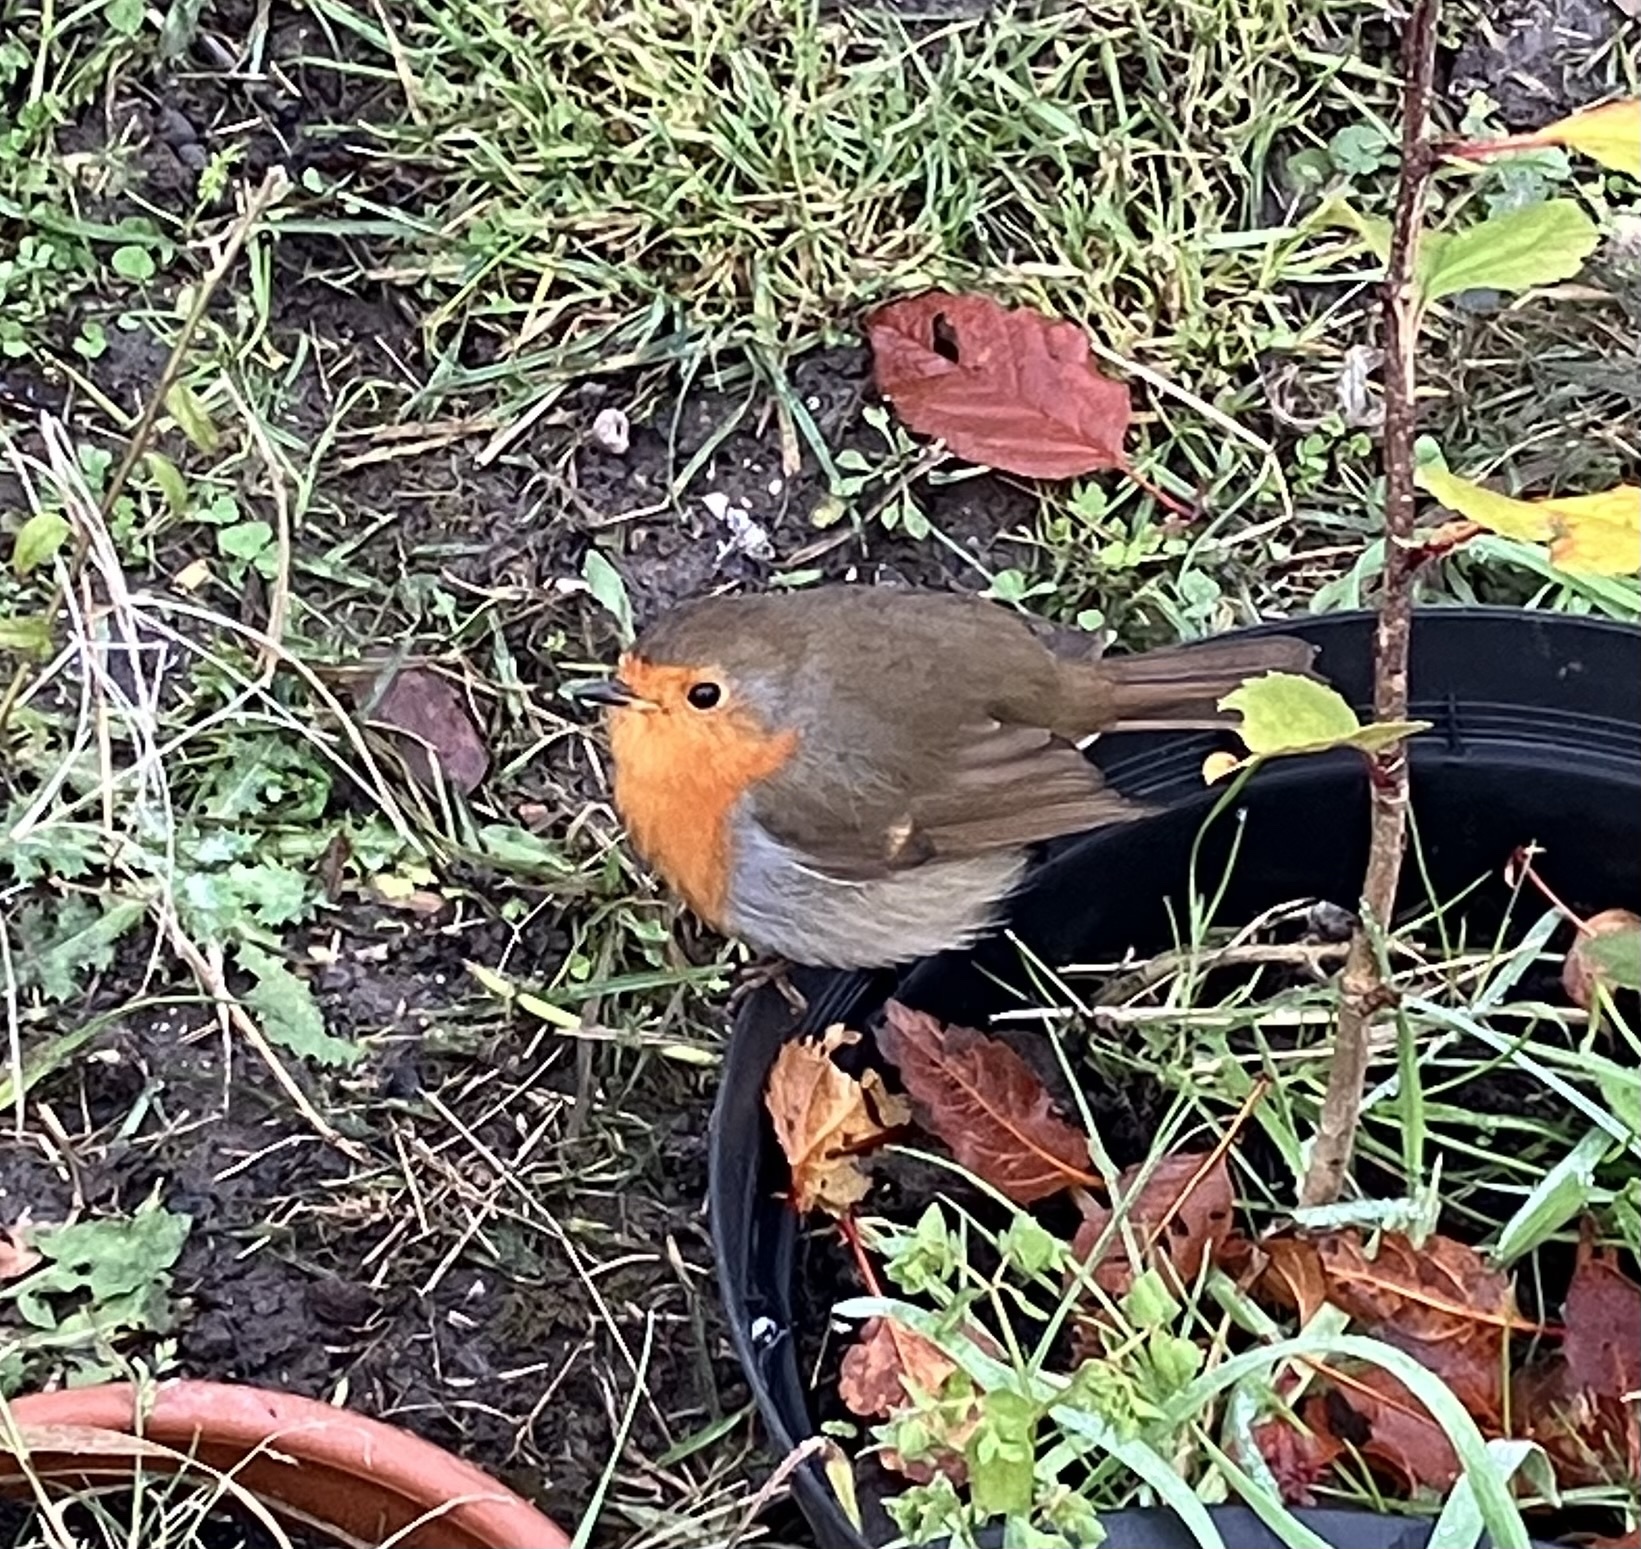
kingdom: Animalia
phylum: Chordata
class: Aves
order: Passeriformes
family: Muscicapidae
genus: Erithacus
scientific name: Erithacus rubecula
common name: European robin
